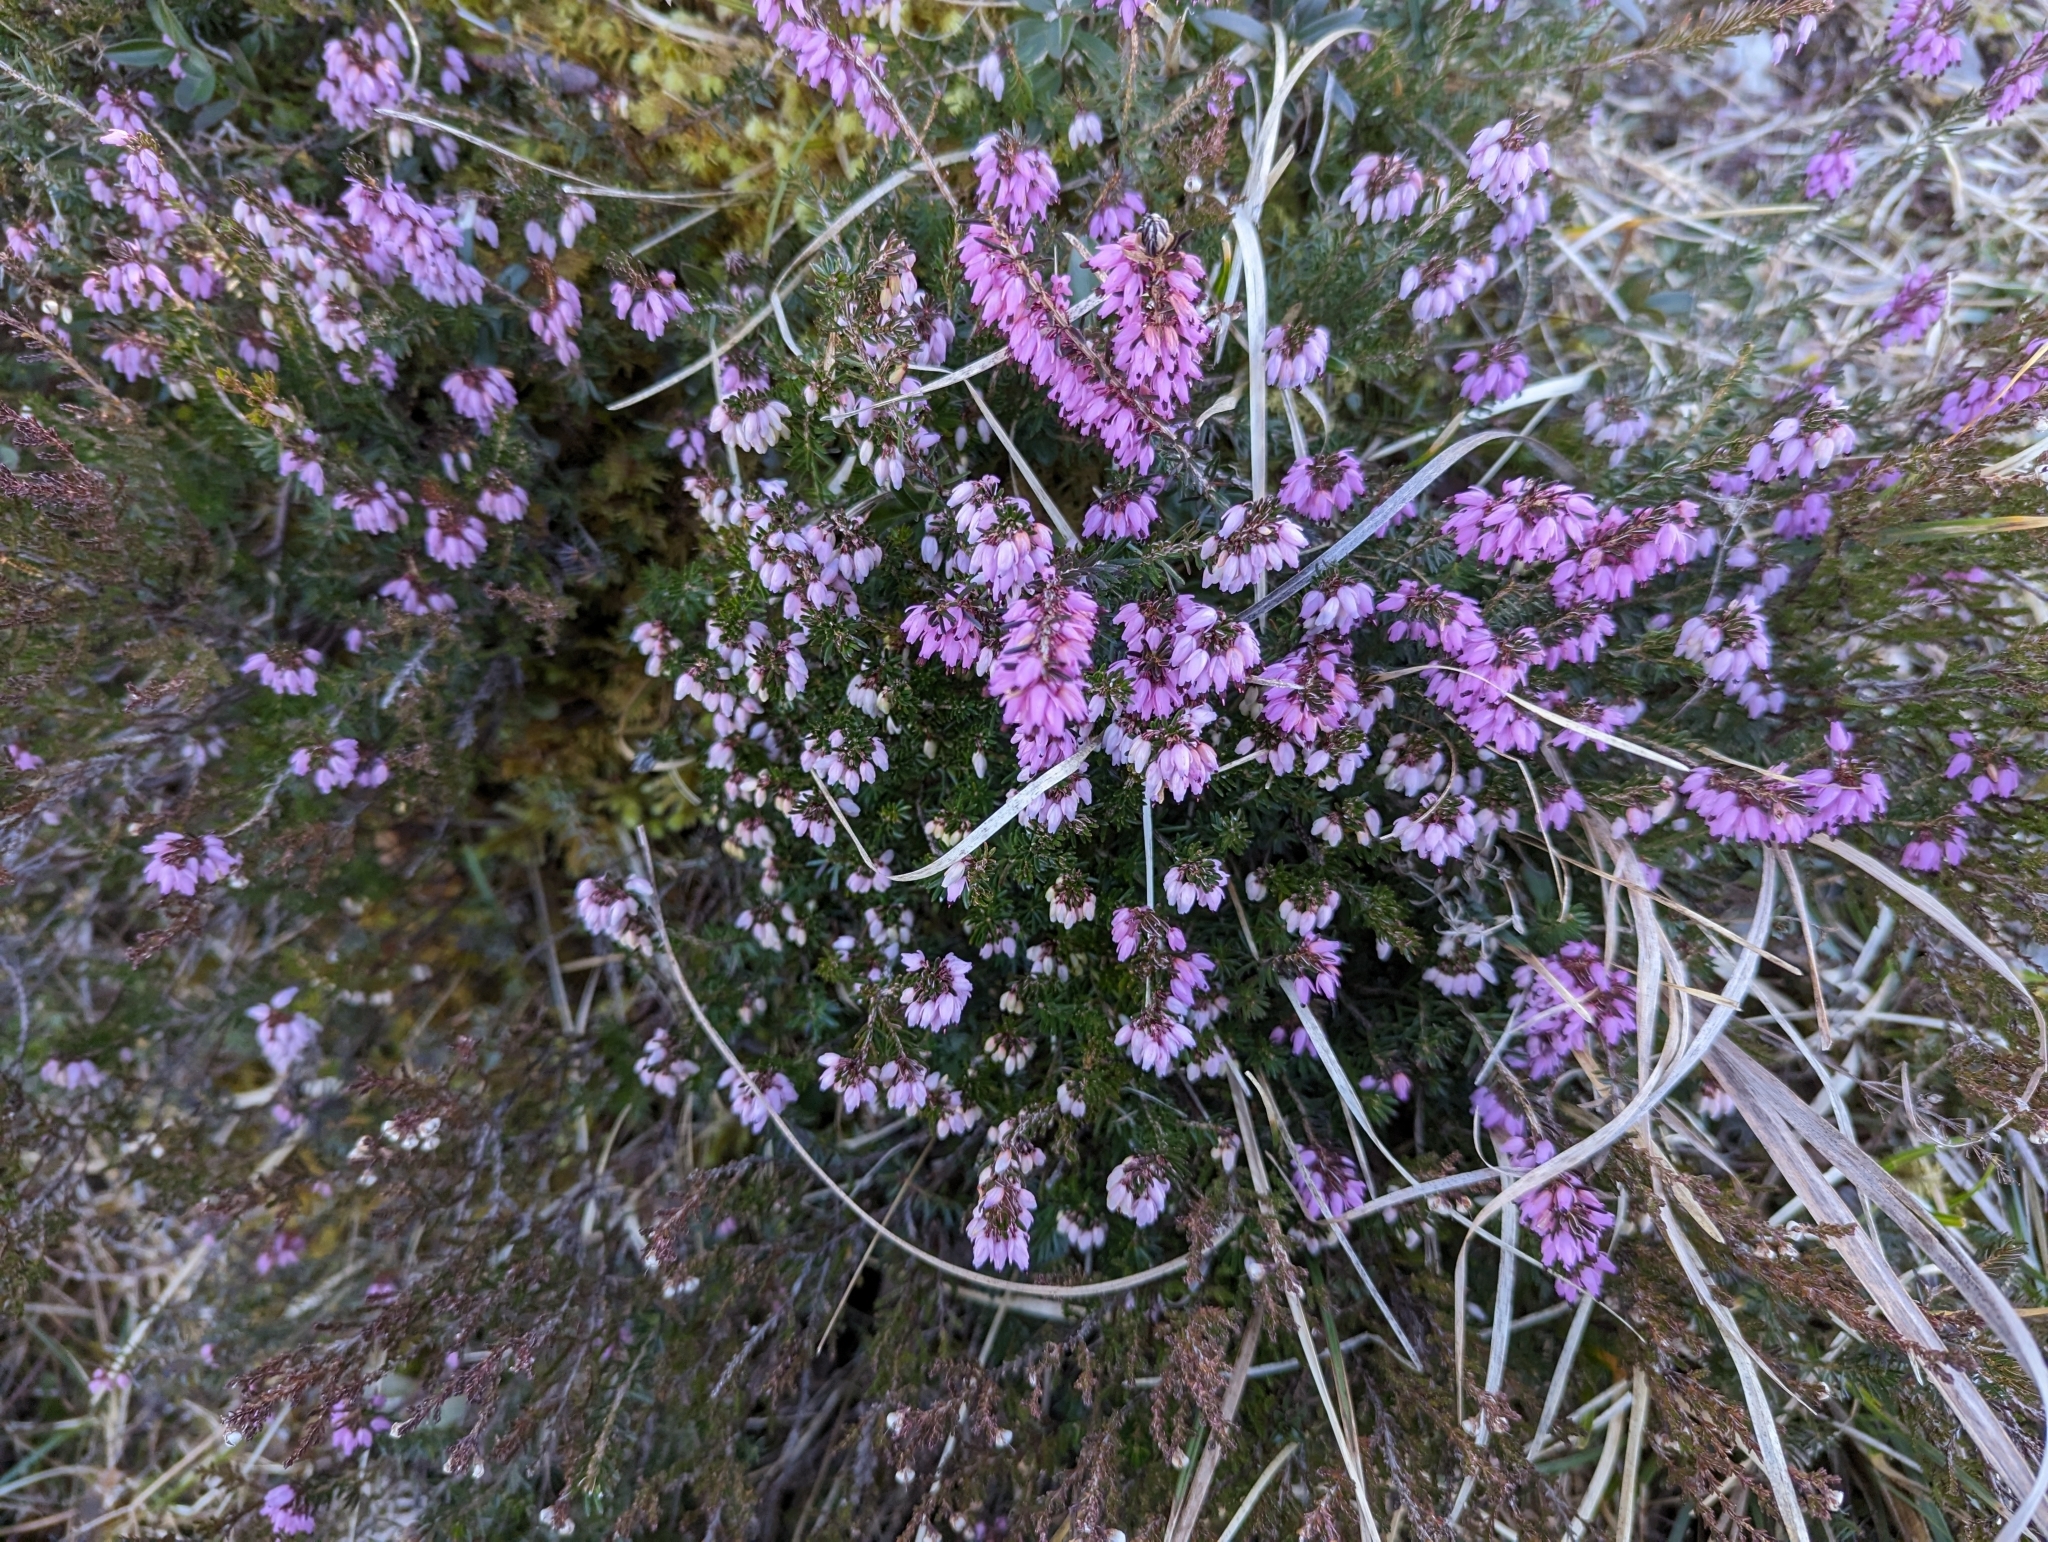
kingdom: Plantae
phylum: Tracheophyta
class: Magnoliopsida
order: Ericales
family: Ericaceae
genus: Erica
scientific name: Erica carnea
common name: Winter heath
